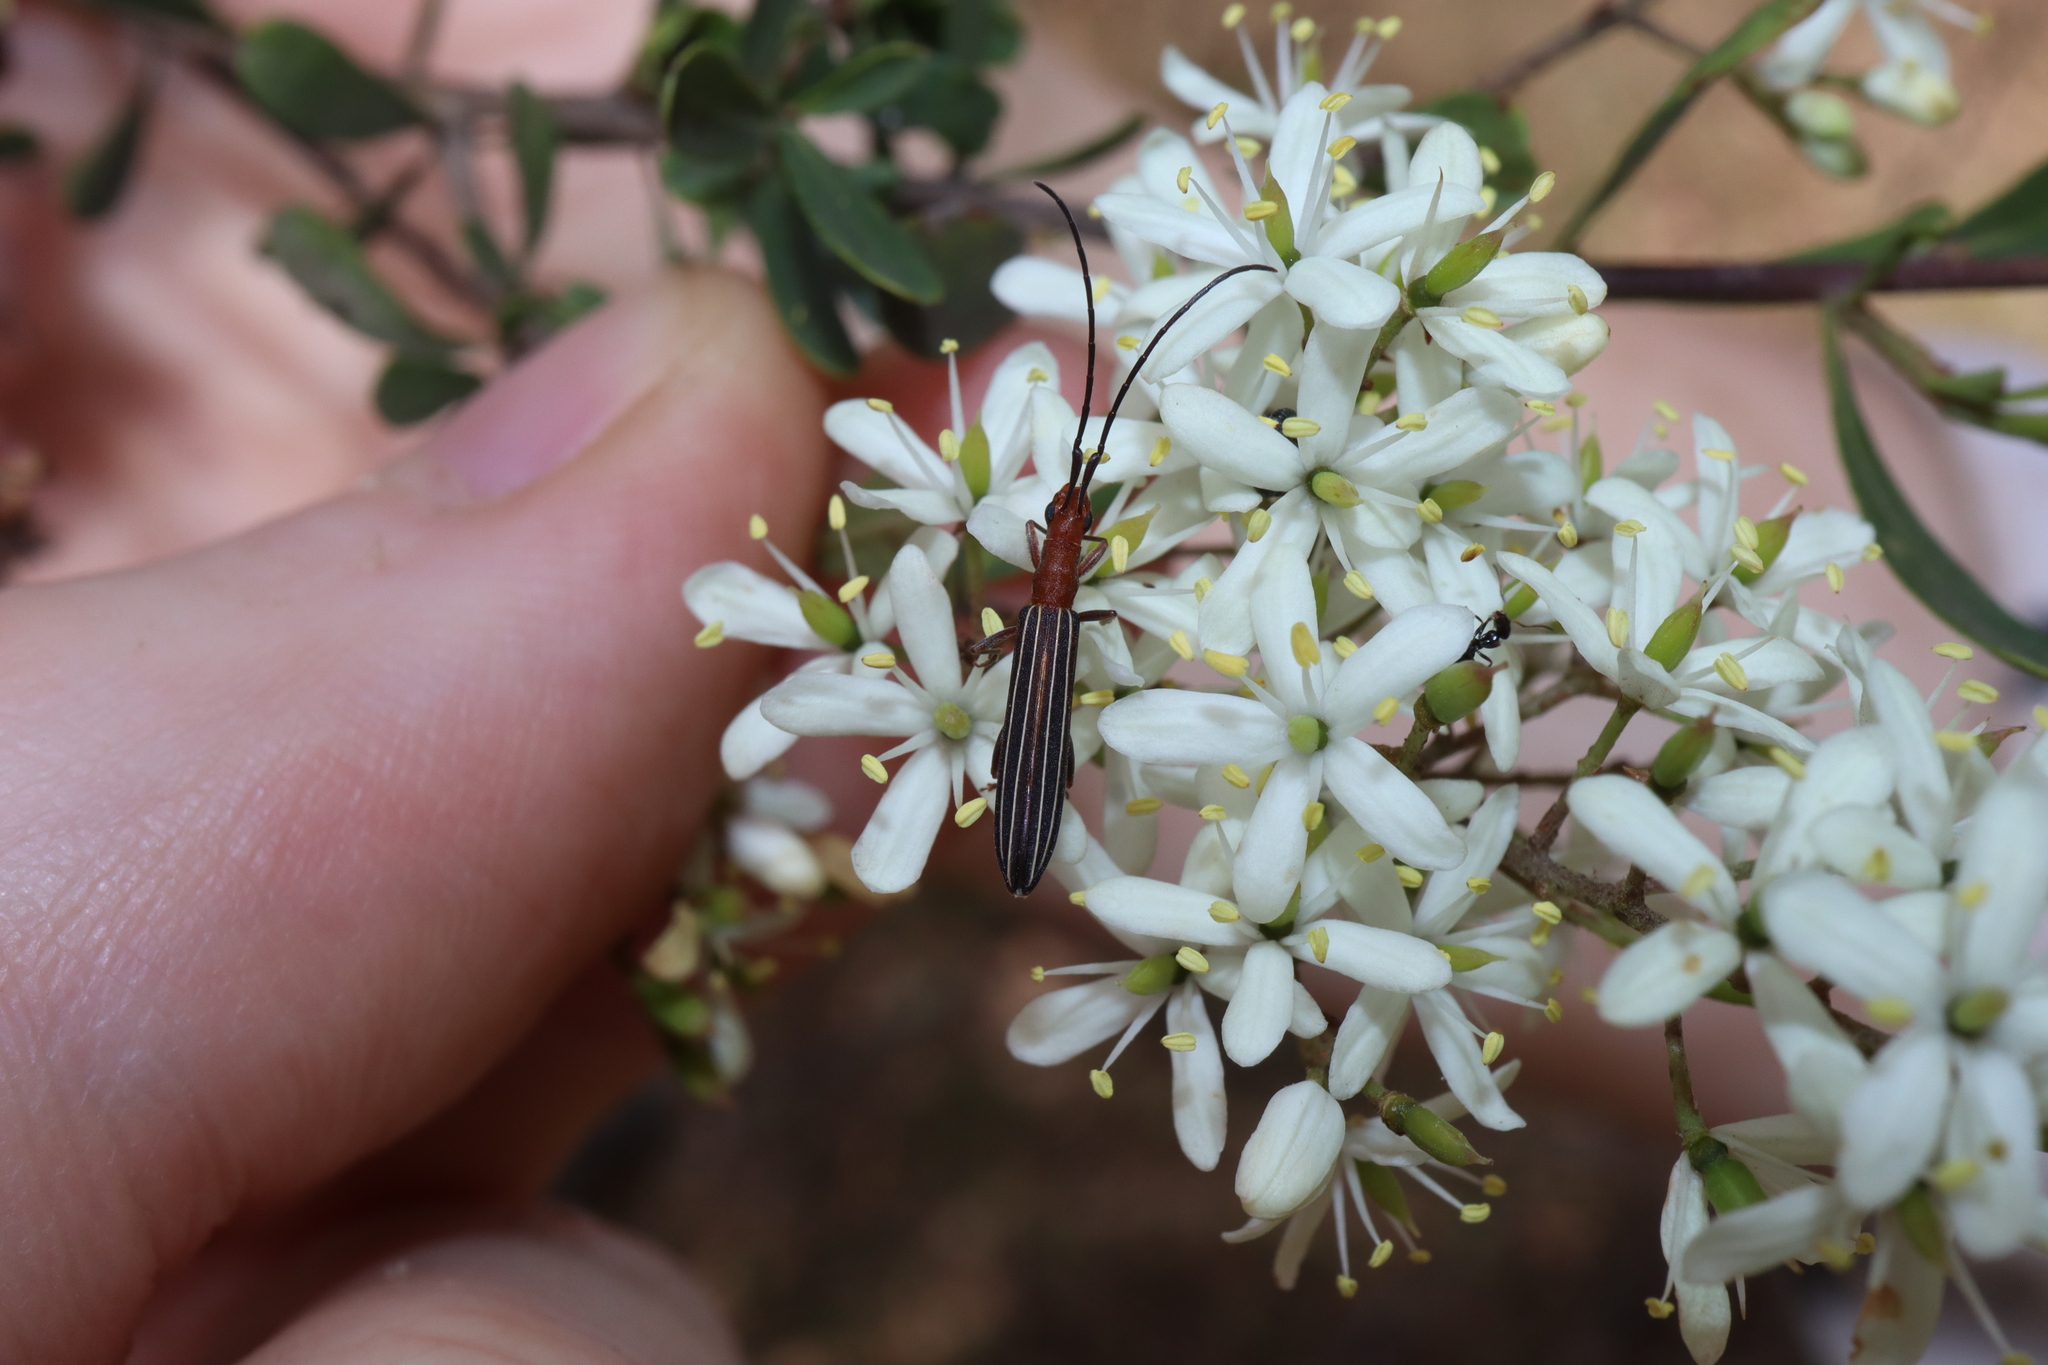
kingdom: Animalia
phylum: Arthropoda
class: Insecta
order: Coleoptera
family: Cerambycidae
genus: Syllitus
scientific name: Syllitus rectus
